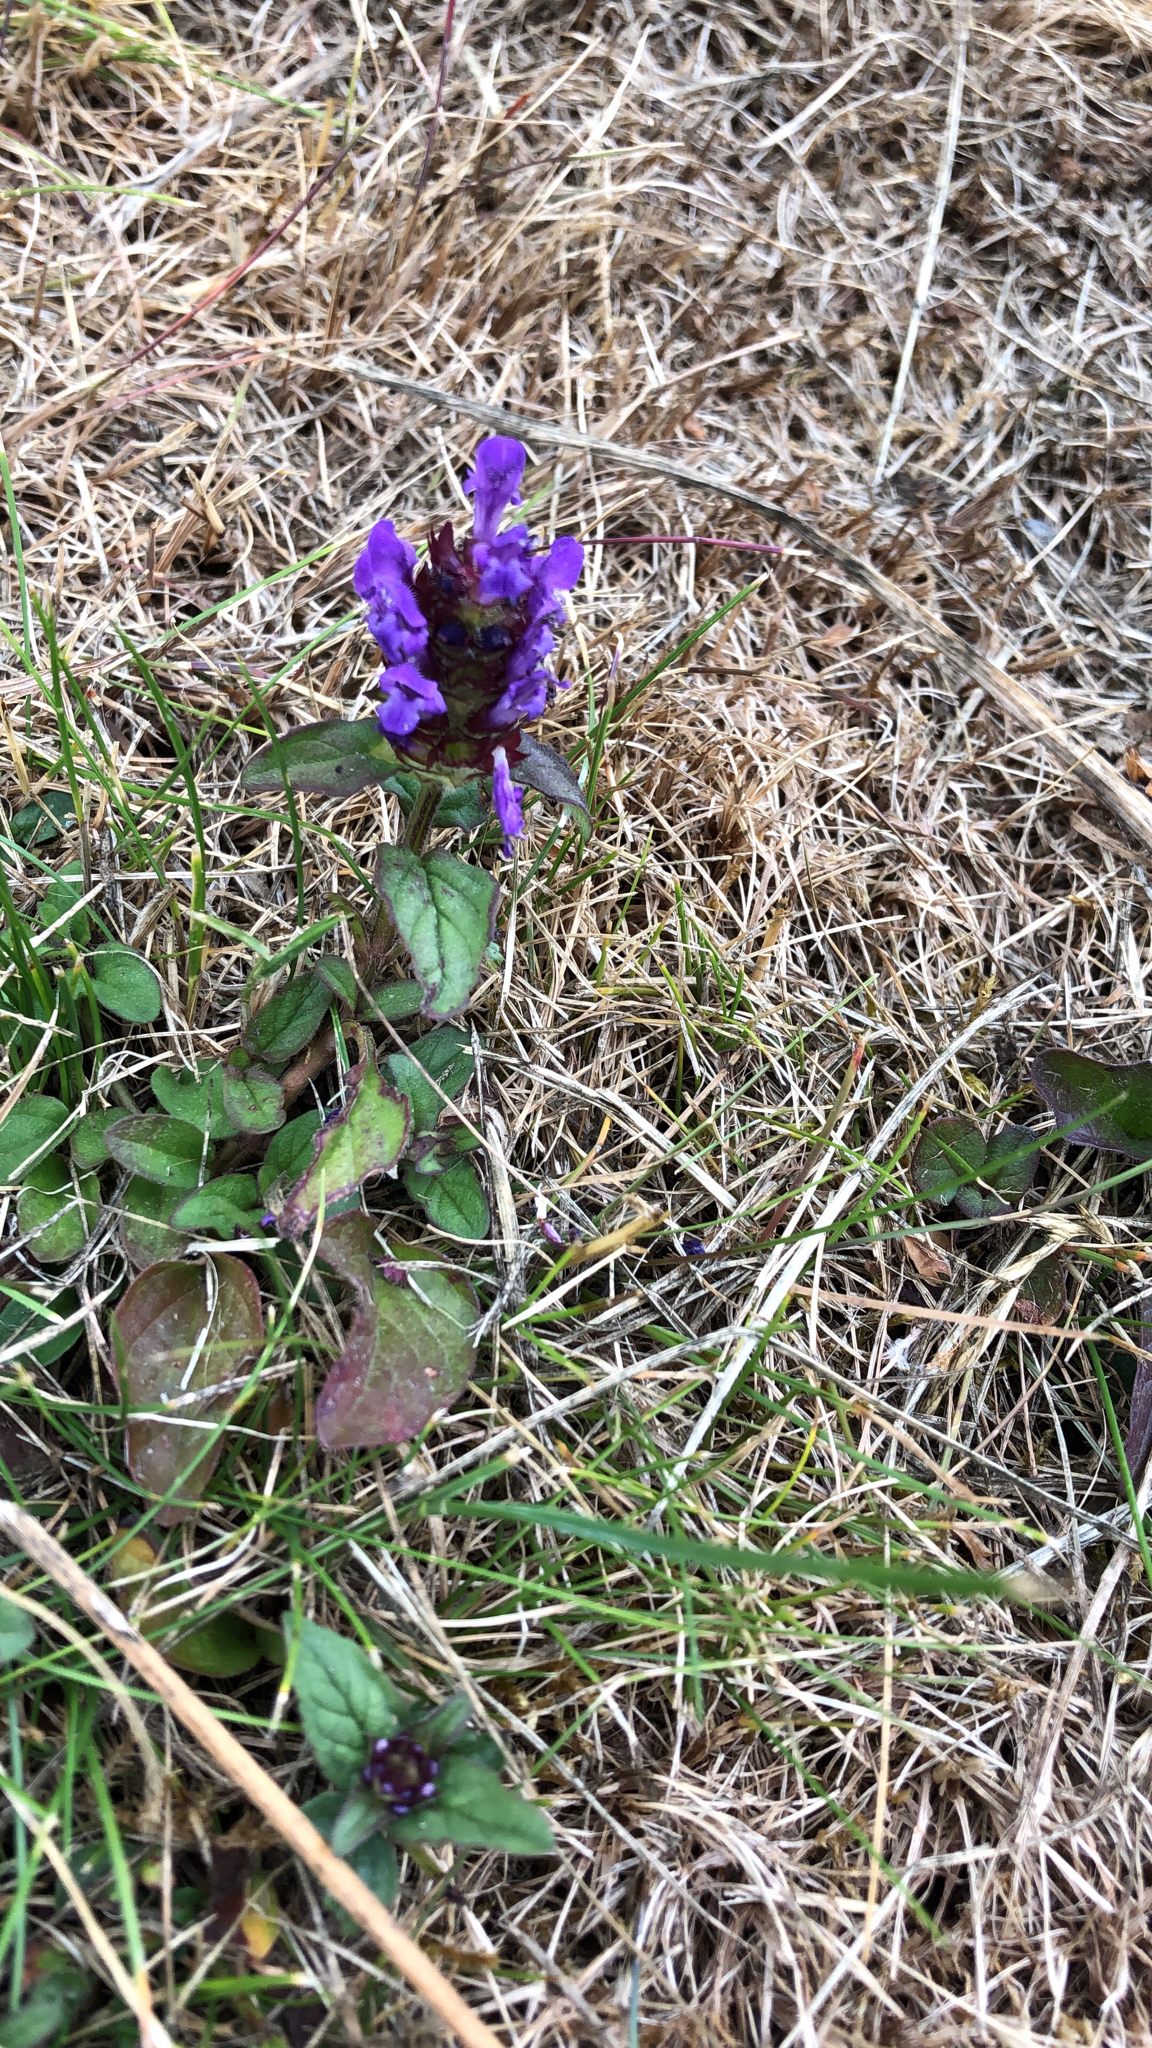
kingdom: Plantae
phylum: Tracheophyta
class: Magnoliopsida
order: Lamiales
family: Lamiaceae
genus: Prunella
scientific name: Prunella vulgaris
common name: Heal-all
